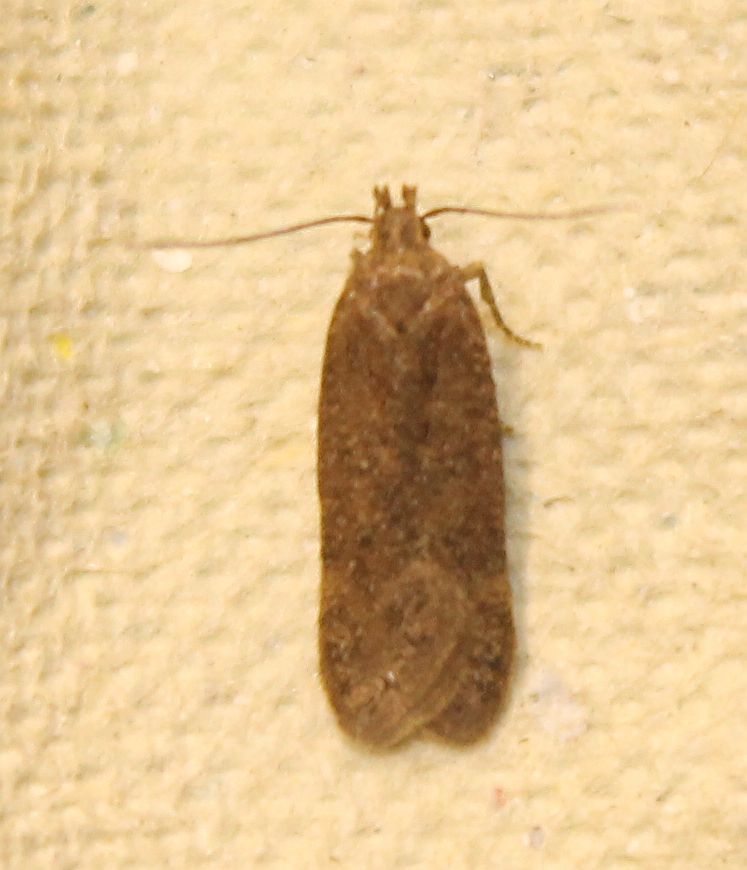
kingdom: Animalia
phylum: Arthropoda
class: Insecta
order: Lepidoptera
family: Gelechiidae
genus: Bryotropha
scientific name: Bryotropha terrella
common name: Cinerous groundling
